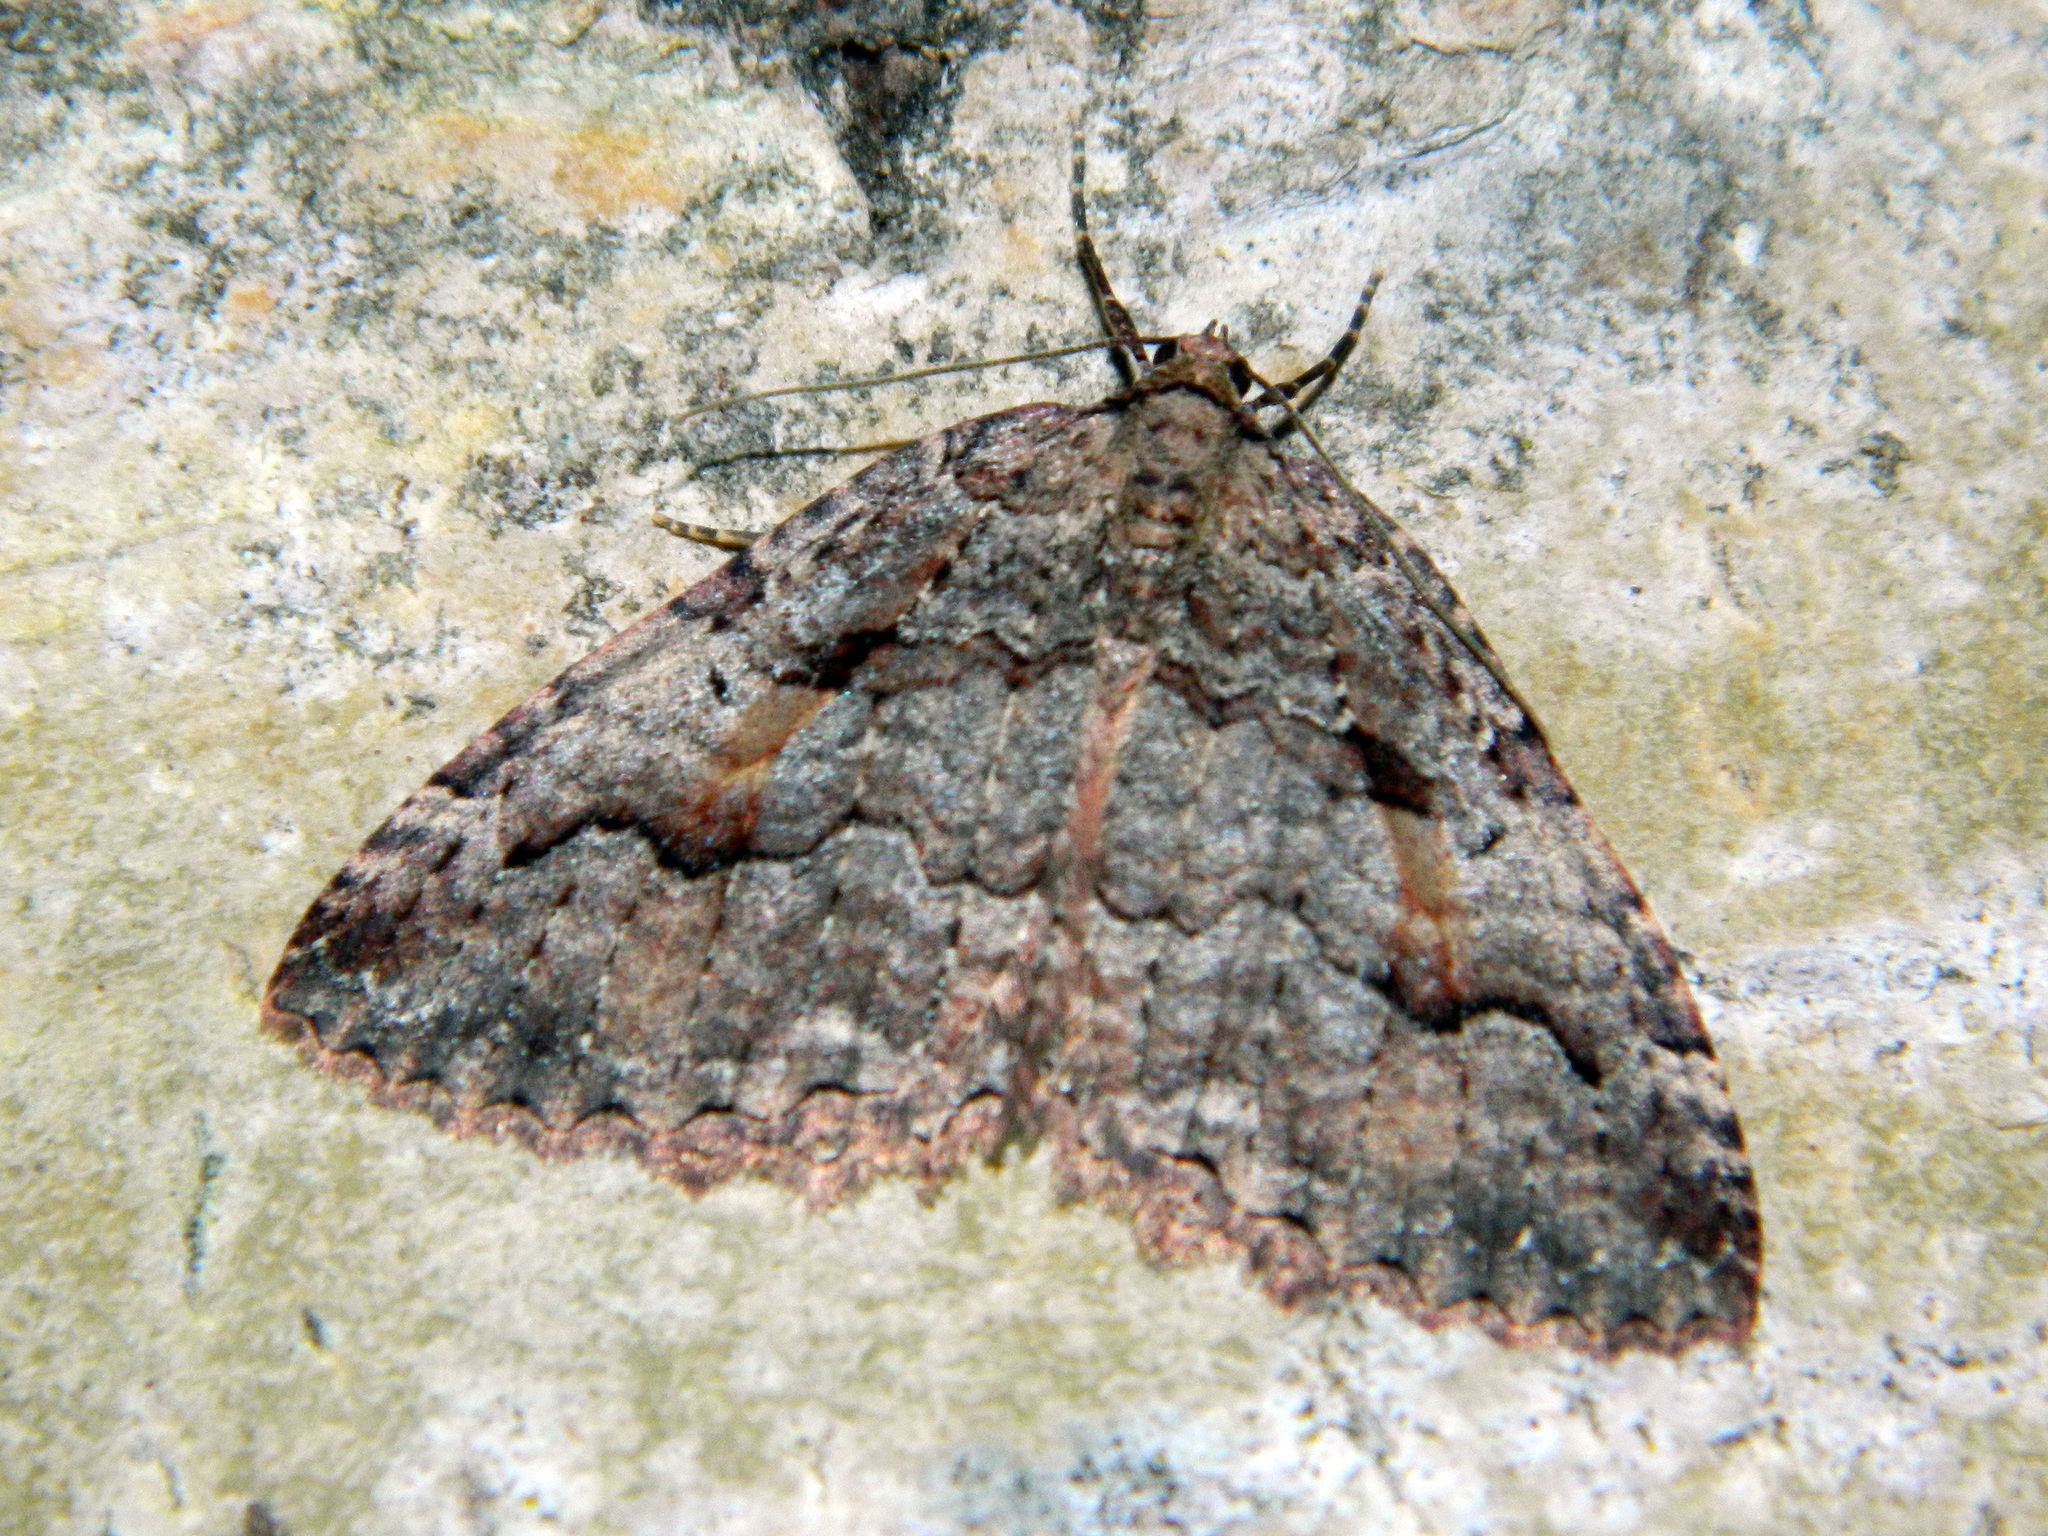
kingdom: Animalia
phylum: Arthropoda
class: Insecta
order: Lepidoptera
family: Geometridae
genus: Triphosa
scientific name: Triphosa haesitata
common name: Tissue moth
